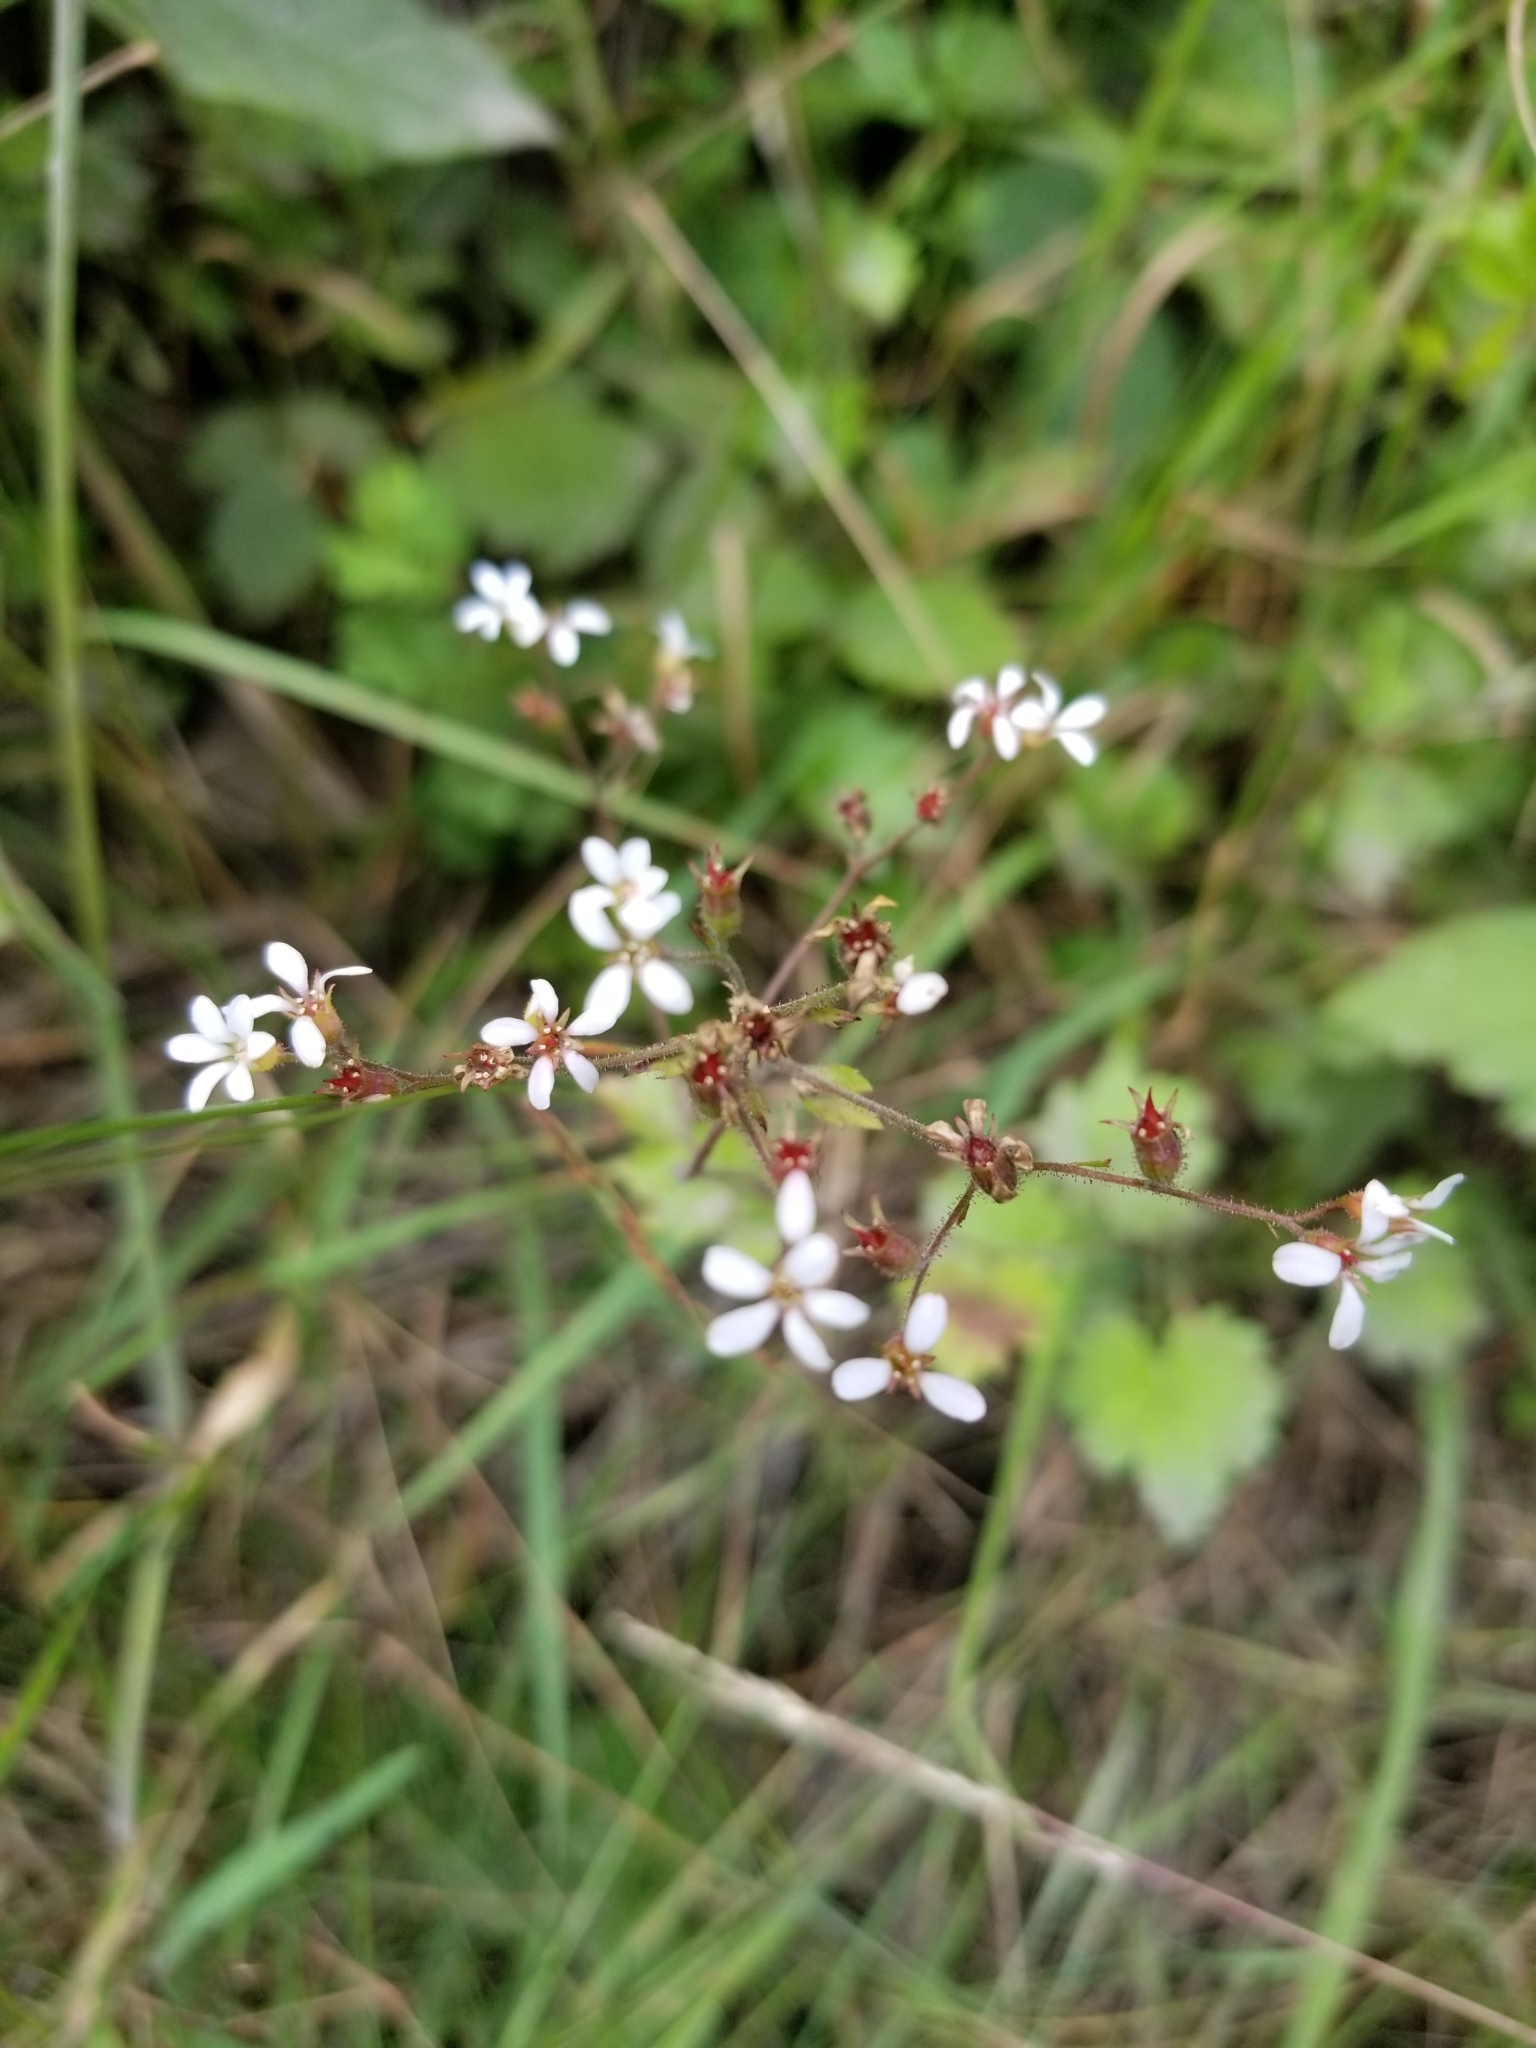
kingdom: Plantae
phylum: Tracheophyta
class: Magnoliopsida
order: Saxifragales
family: Saxifragaceae
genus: Boykinia
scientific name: Boykinia occidentalis
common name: Coast boykinia
